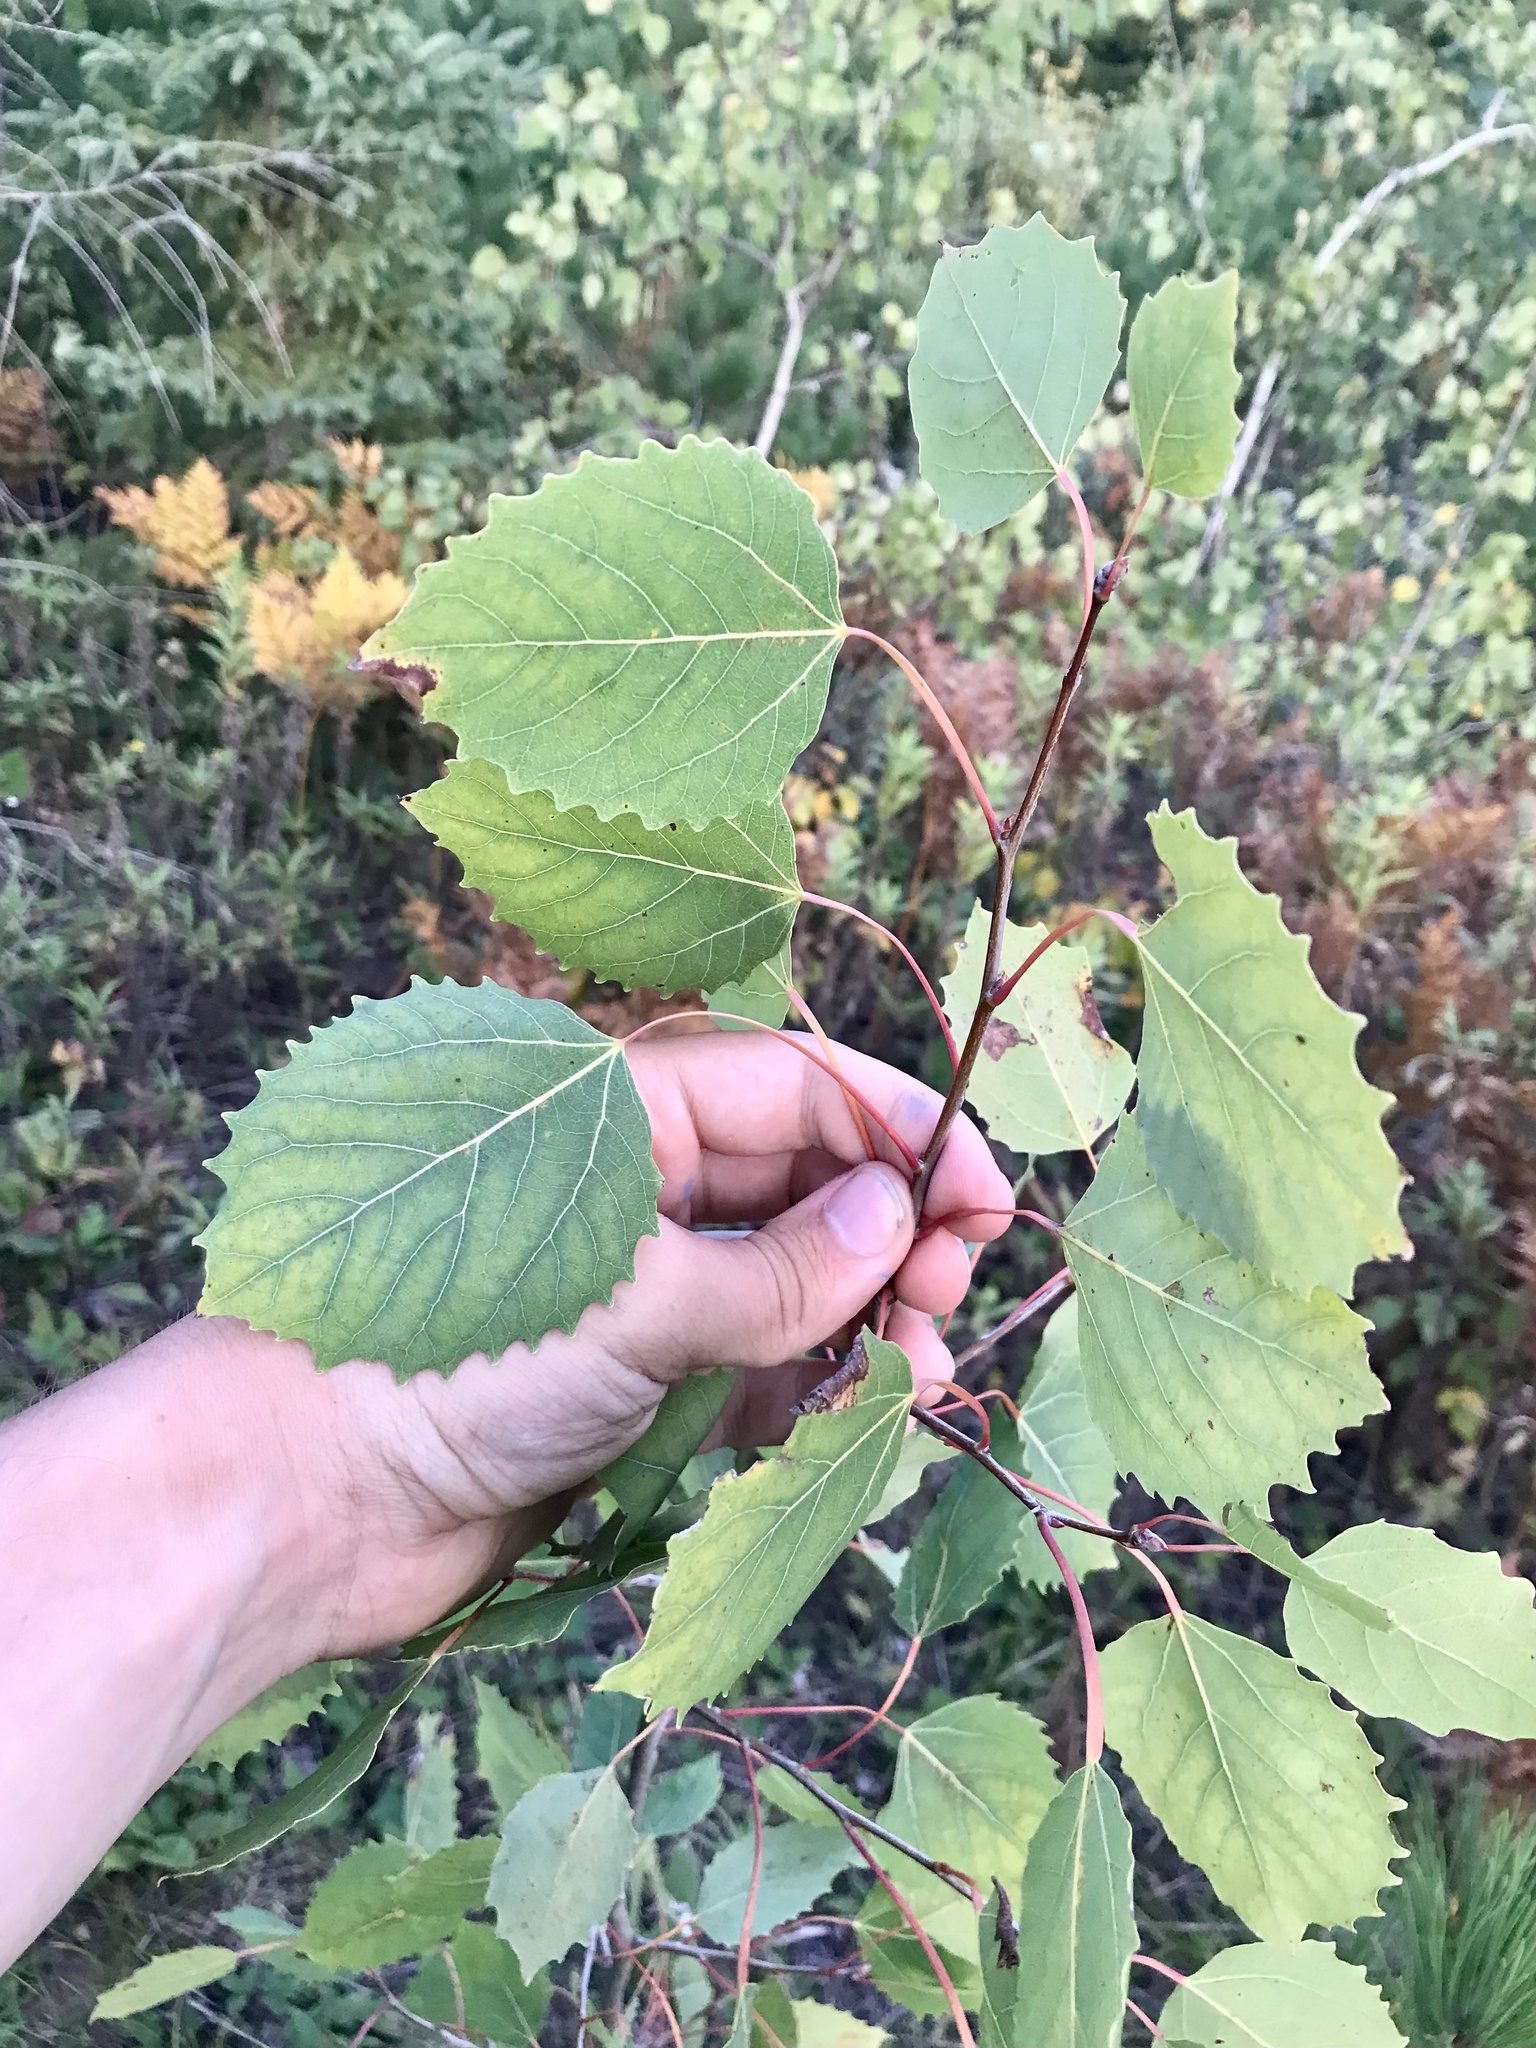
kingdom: Plantae
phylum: Tracheophyta
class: Magnoliopsida
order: Malpighiales
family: Salicaceae
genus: Populus
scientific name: Populus grandidentata
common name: Bigtooth aspen
